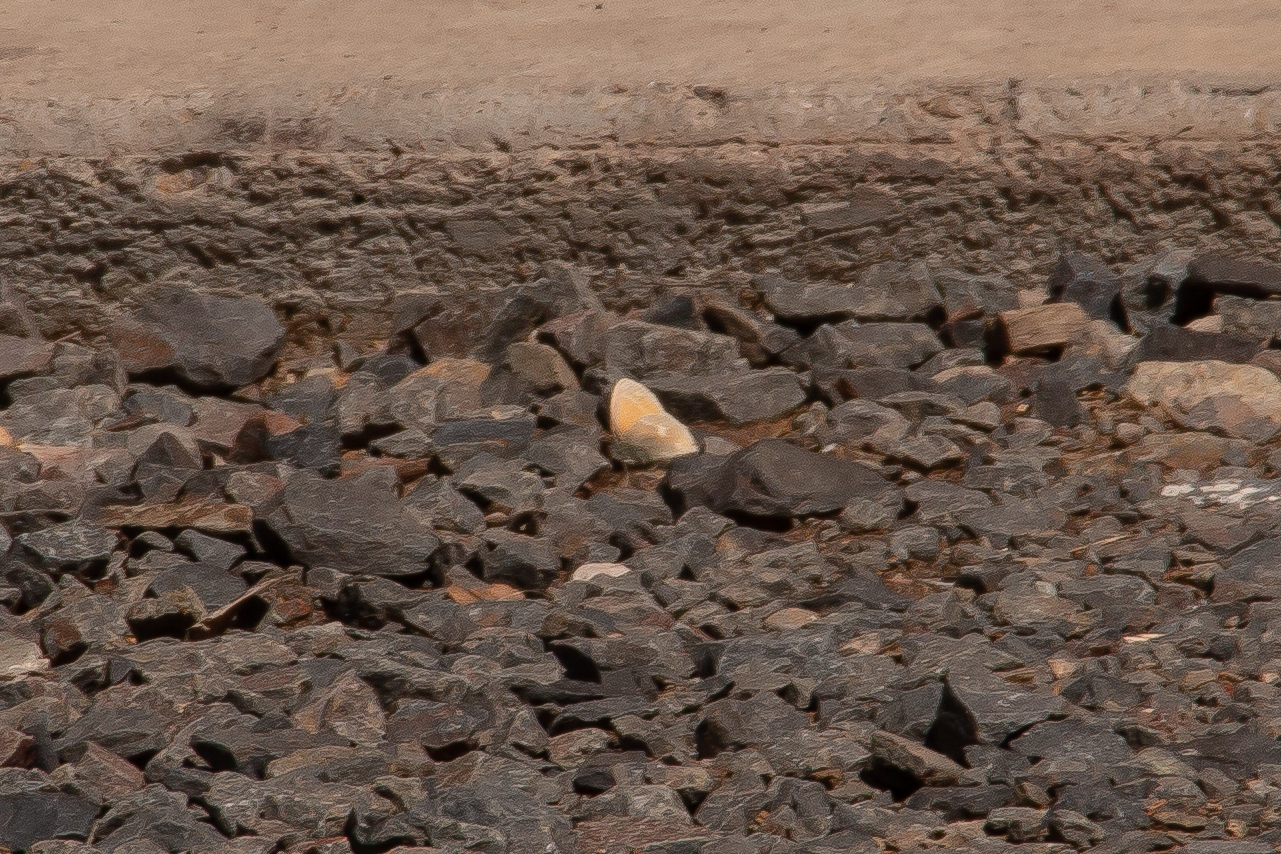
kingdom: Animalia
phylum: Arthropoda
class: Insecta
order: Lepidoptera
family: Nymphalidae
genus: Coenonympha
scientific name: Coenonympha california
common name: Common ringlet
